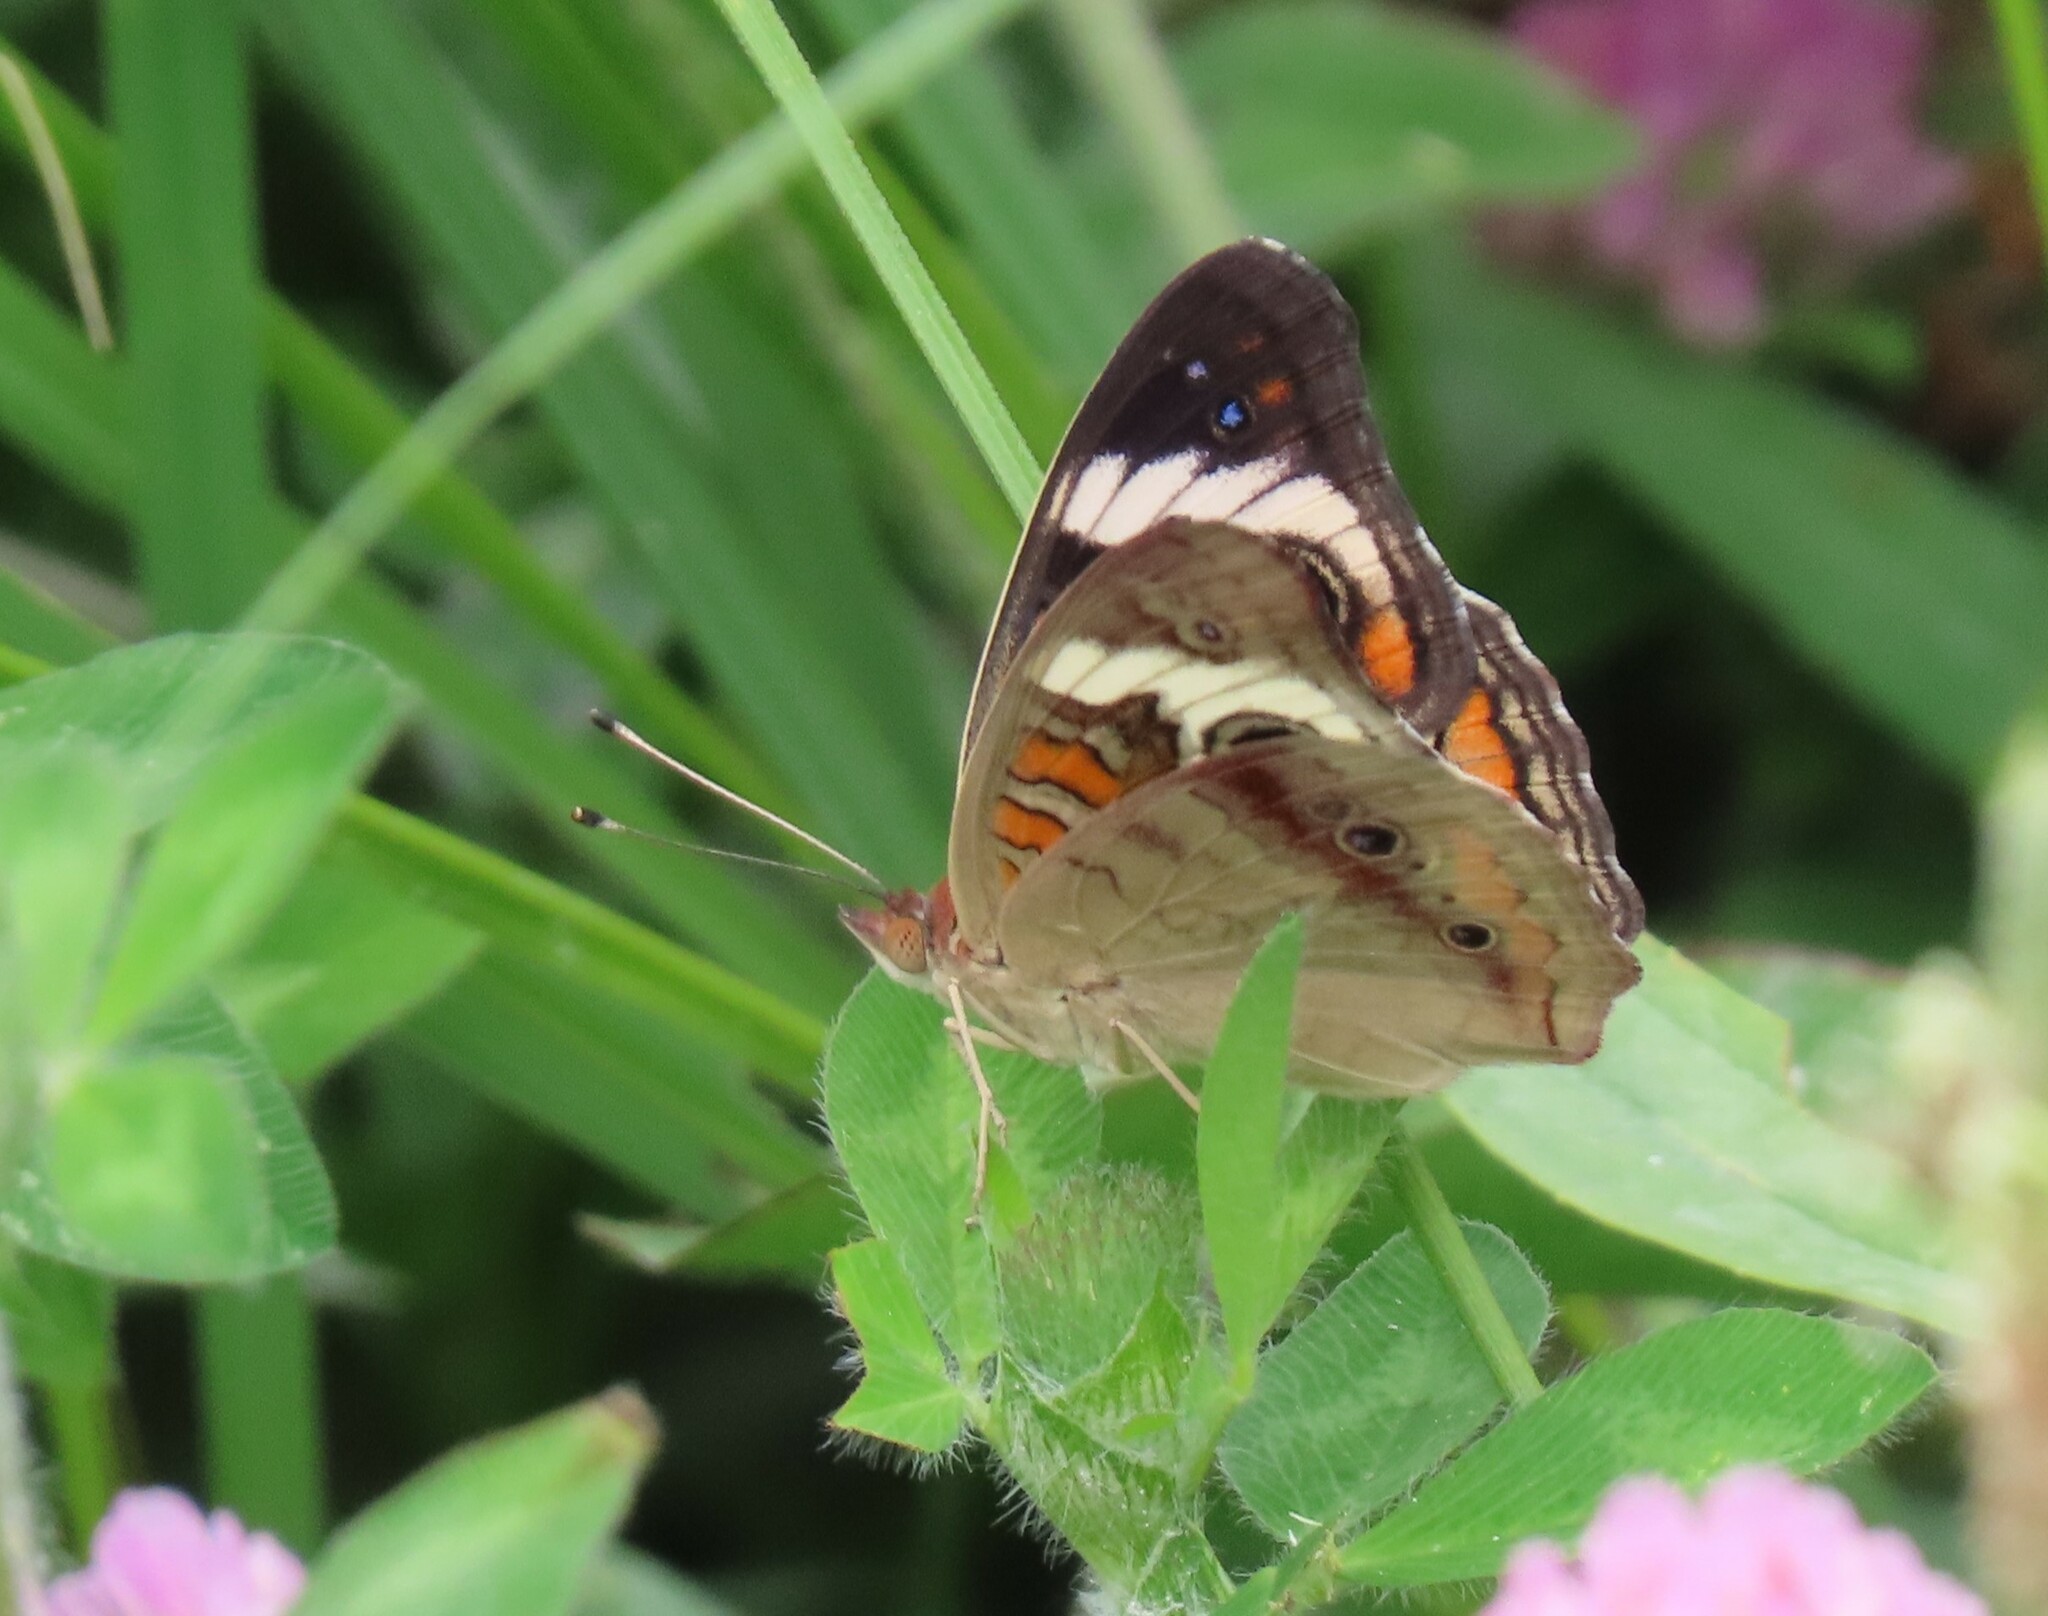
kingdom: Animalia
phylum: Arthropoda
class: Insecta
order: Lepidoptera
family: Nymphalidae
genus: Junonia
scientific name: Junonia coenia
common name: Common buckeye
